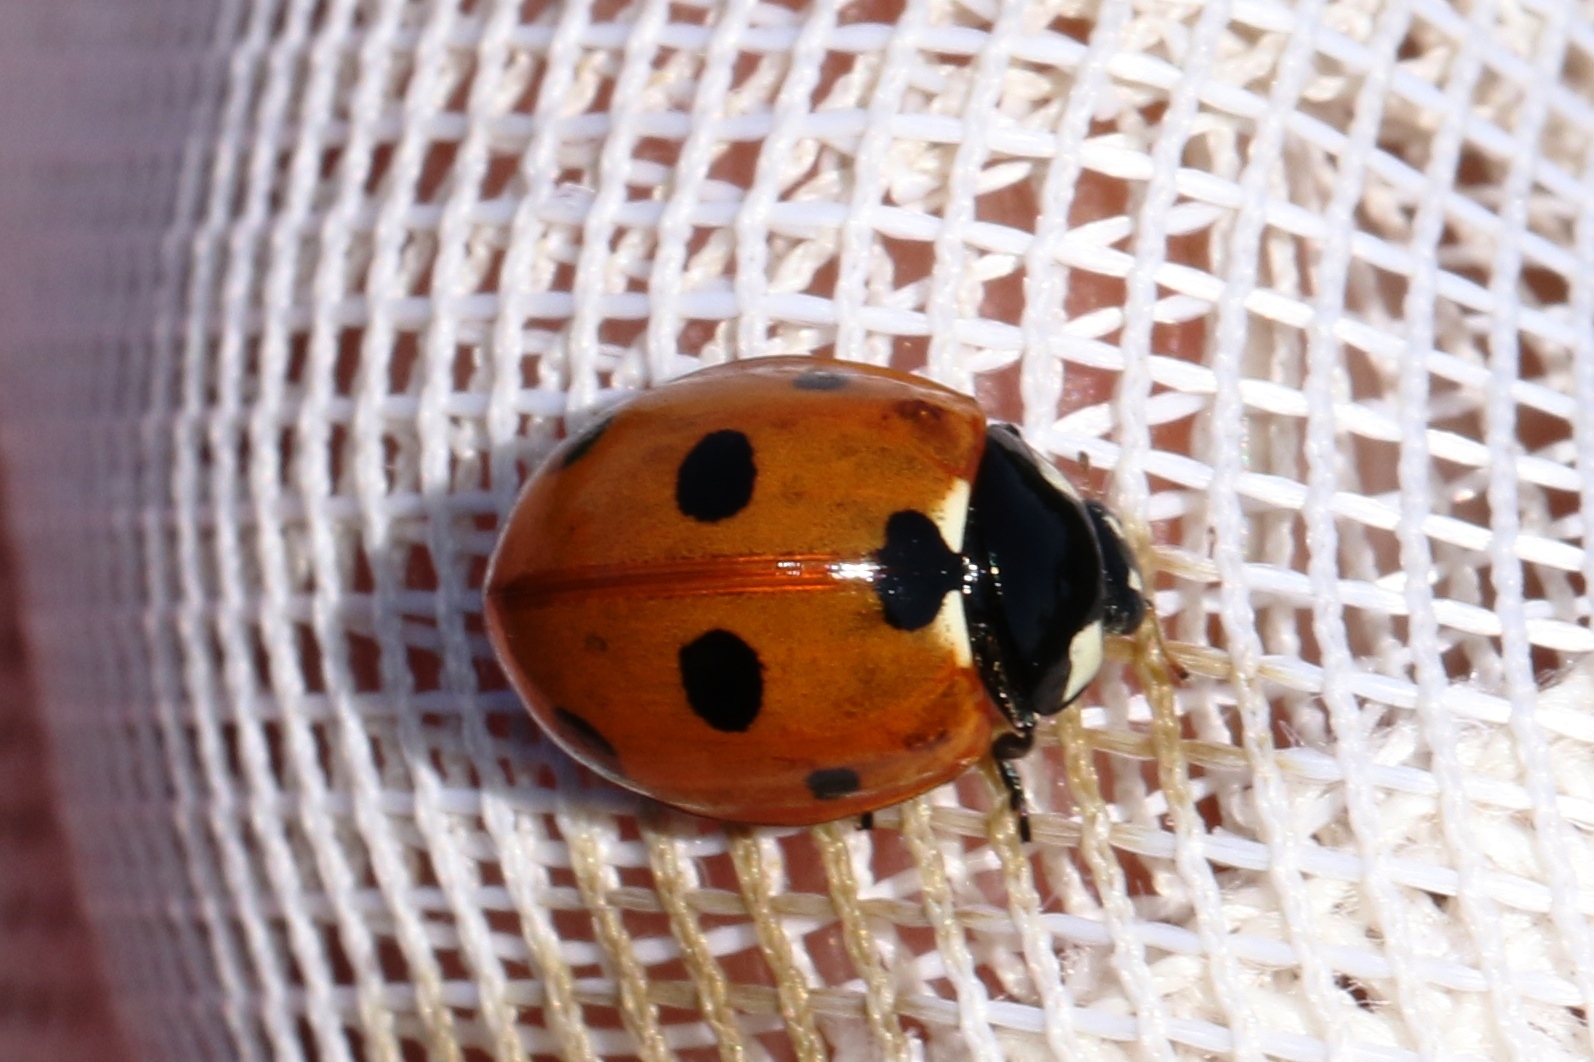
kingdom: Animalia
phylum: Arthropoda
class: Insecta
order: Coleoptera
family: Coccinellidae
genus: Coccinella
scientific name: Coccinella septempunctata
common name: Sevenspotted lady beetle
